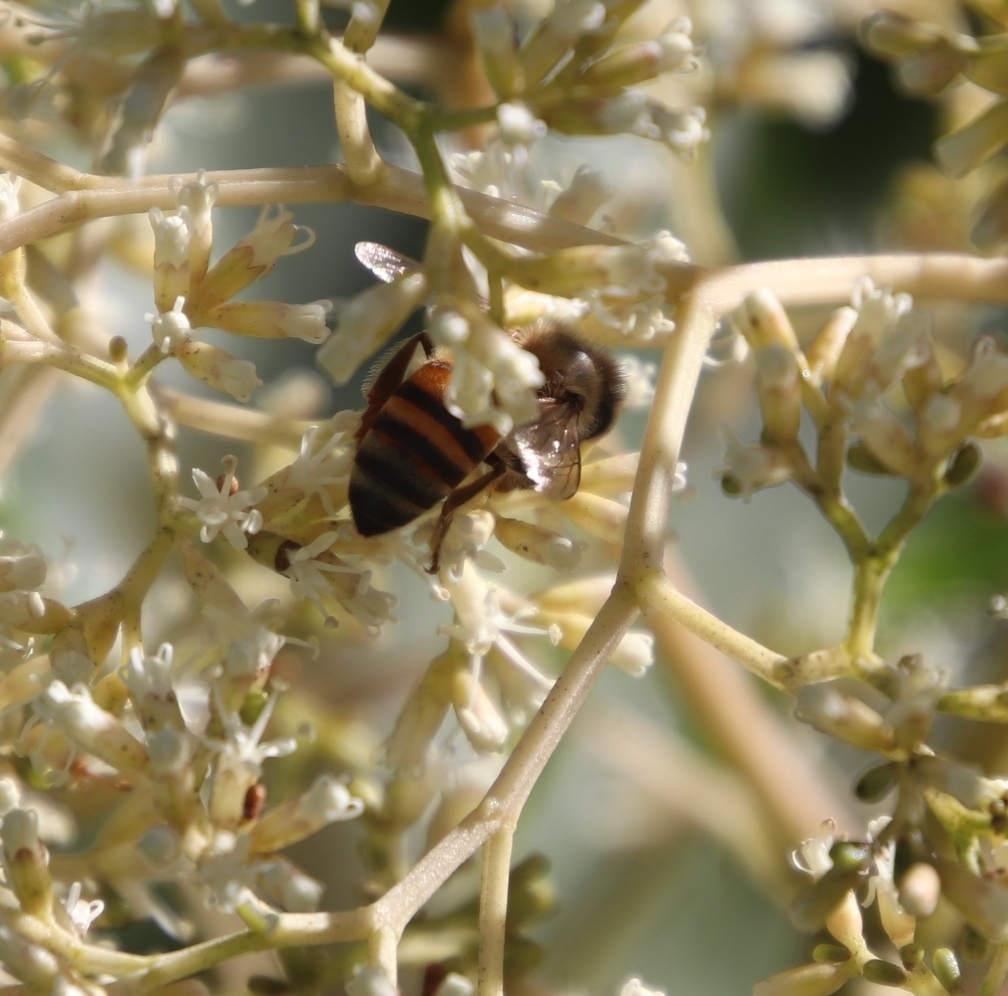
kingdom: Animalia
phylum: Arthropoda
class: Insecta
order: Hymenoptera
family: Apidae
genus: Apis
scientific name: Apis mellifera
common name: Honey bee
